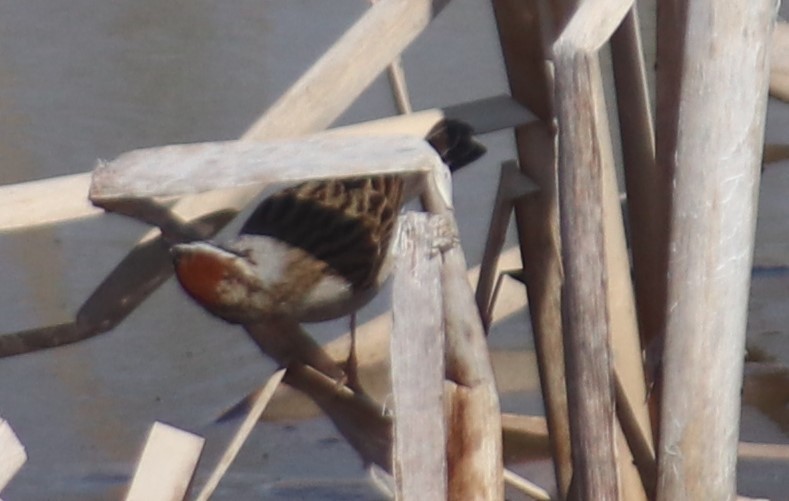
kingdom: Animalia
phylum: Chordata
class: Aves
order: Passeriformes
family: Passerellidae
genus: Spizella
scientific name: Spizella passerina
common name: Chipping sparrow
